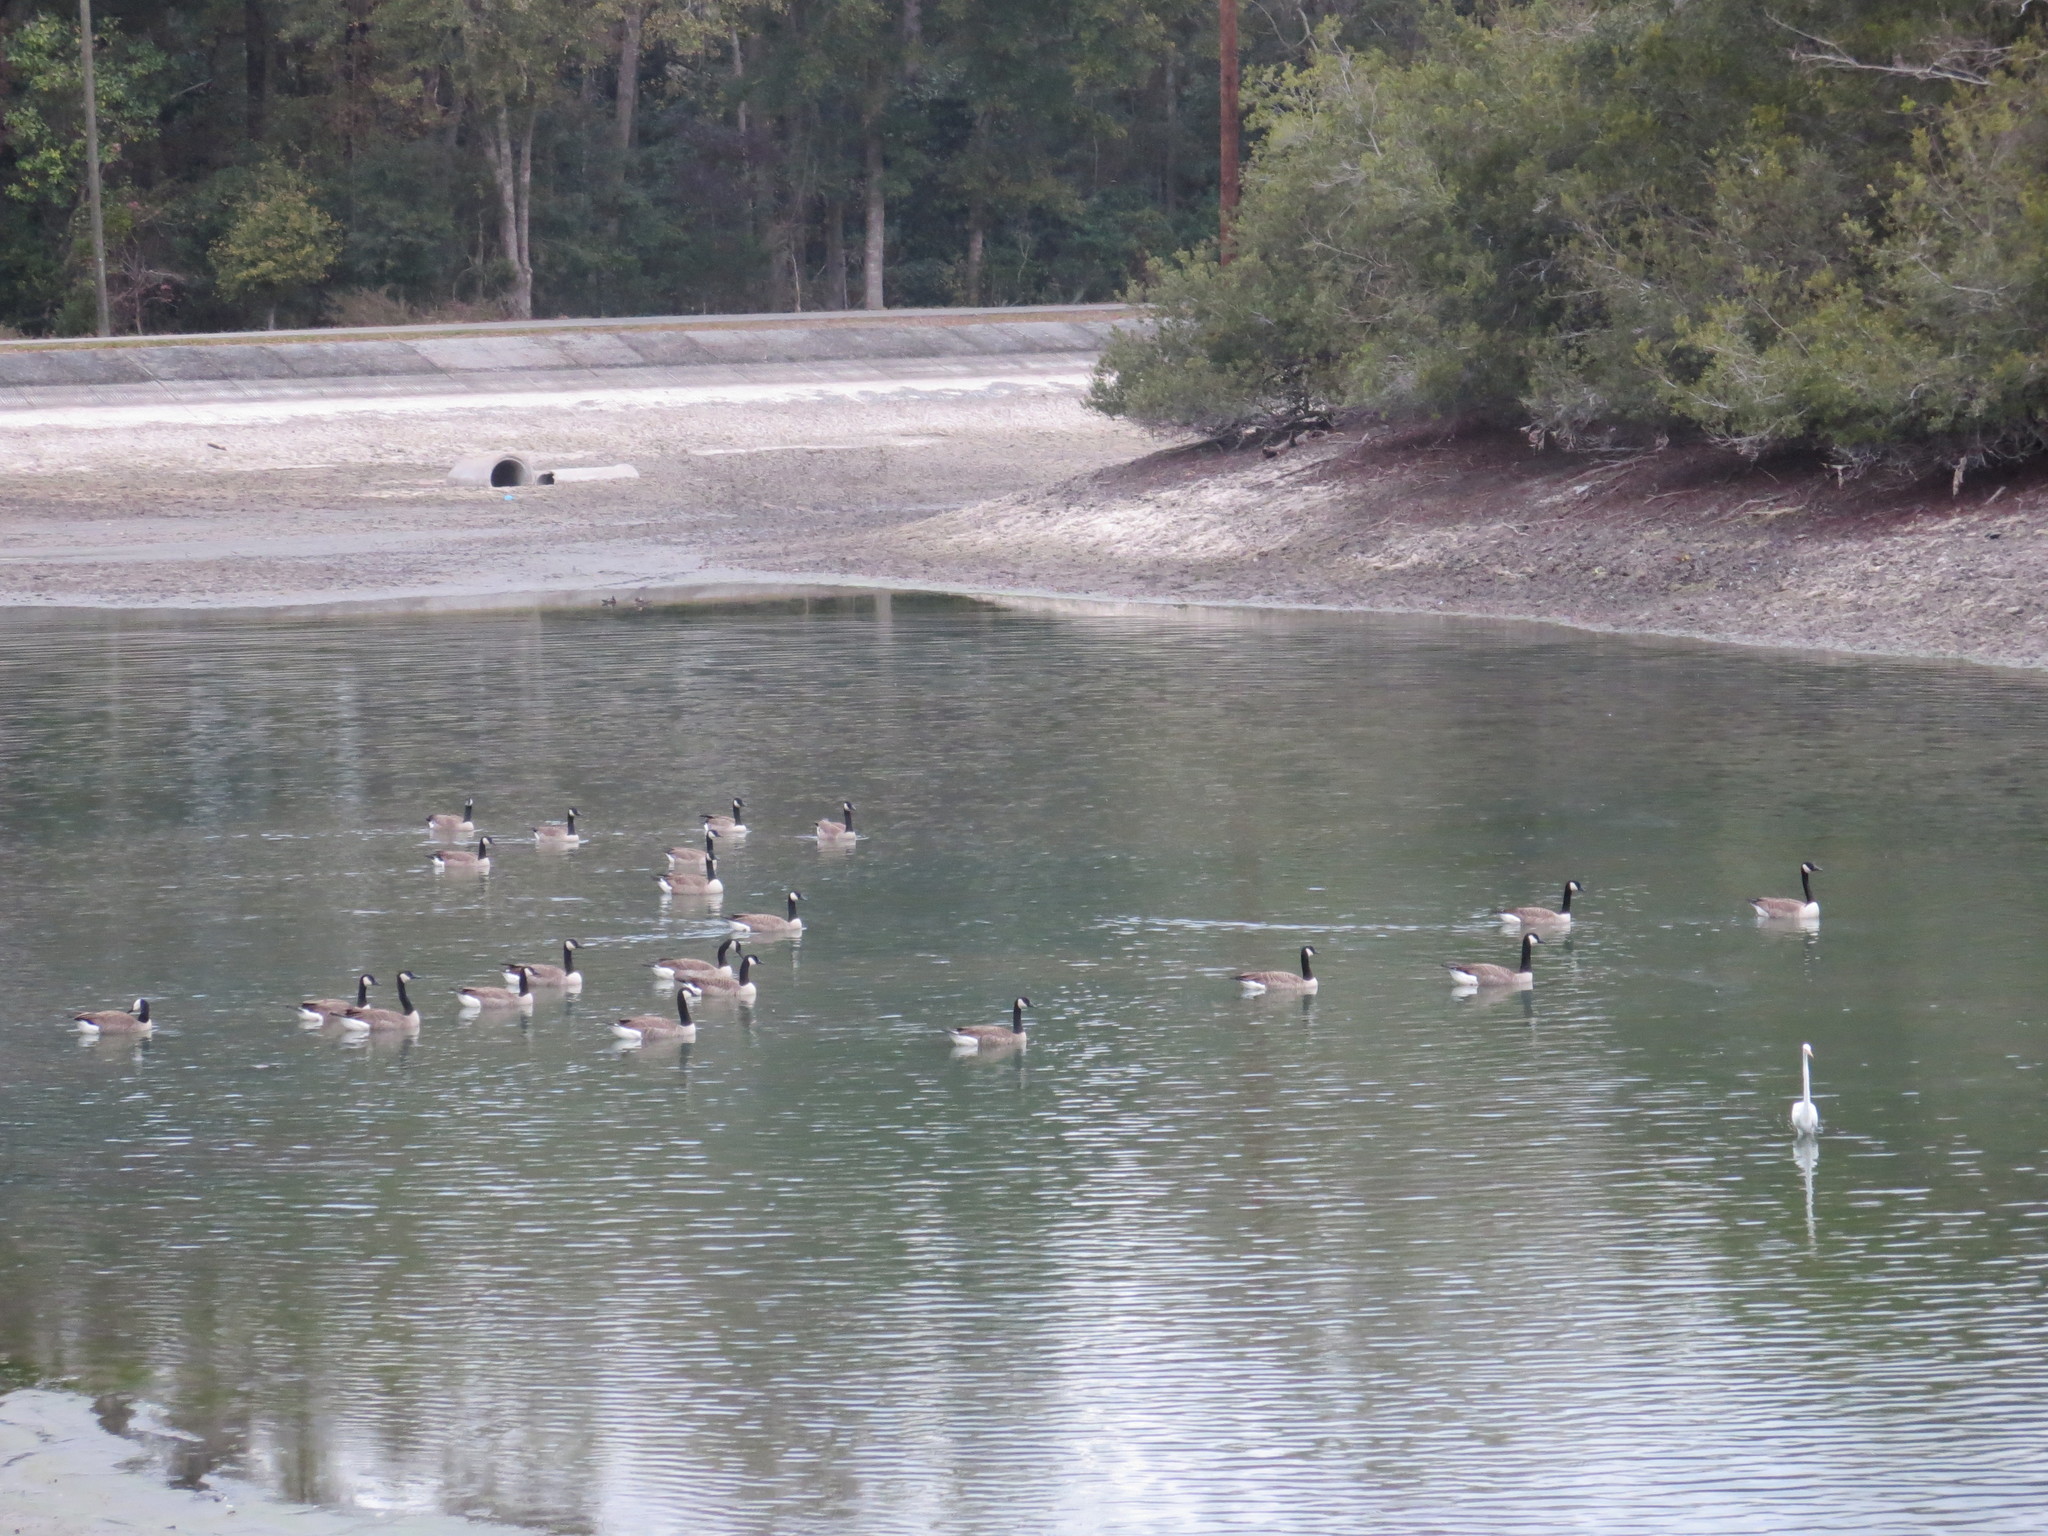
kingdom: Animalia
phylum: Chordata
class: Aves
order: Anseriformes
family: Anatidae
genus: Branta
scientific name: Branta canadensis
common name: Canada goose
